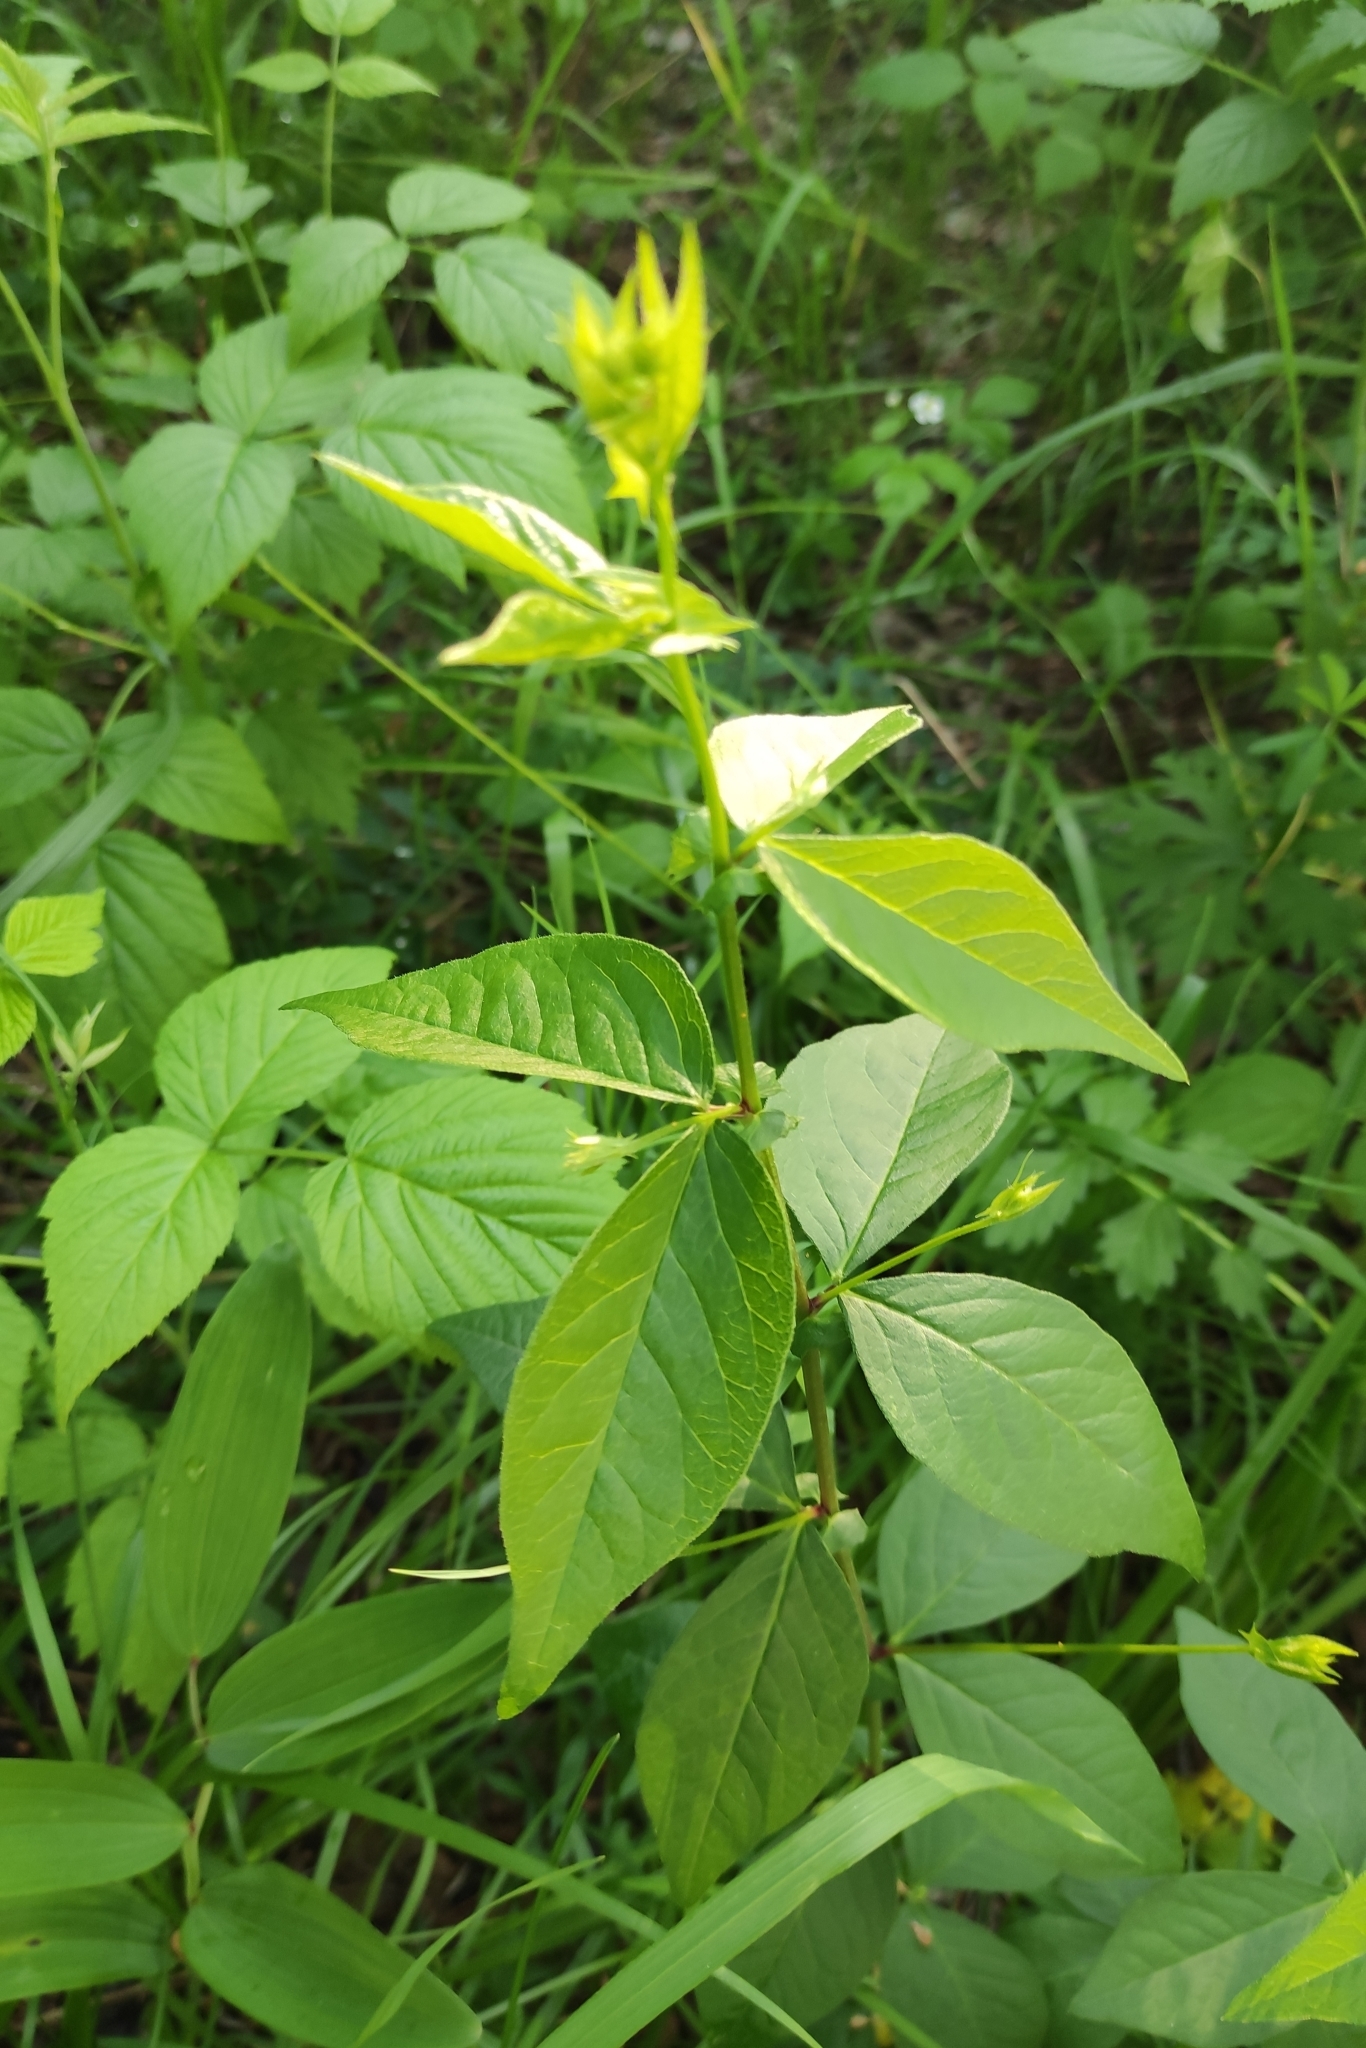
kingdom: Plantae
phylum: Tracheophyta
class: Magnoliopsida
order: Fabales
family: Fabaceae
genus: Vicia
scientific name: Vicia unijuga
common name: Two-leaf vetch
